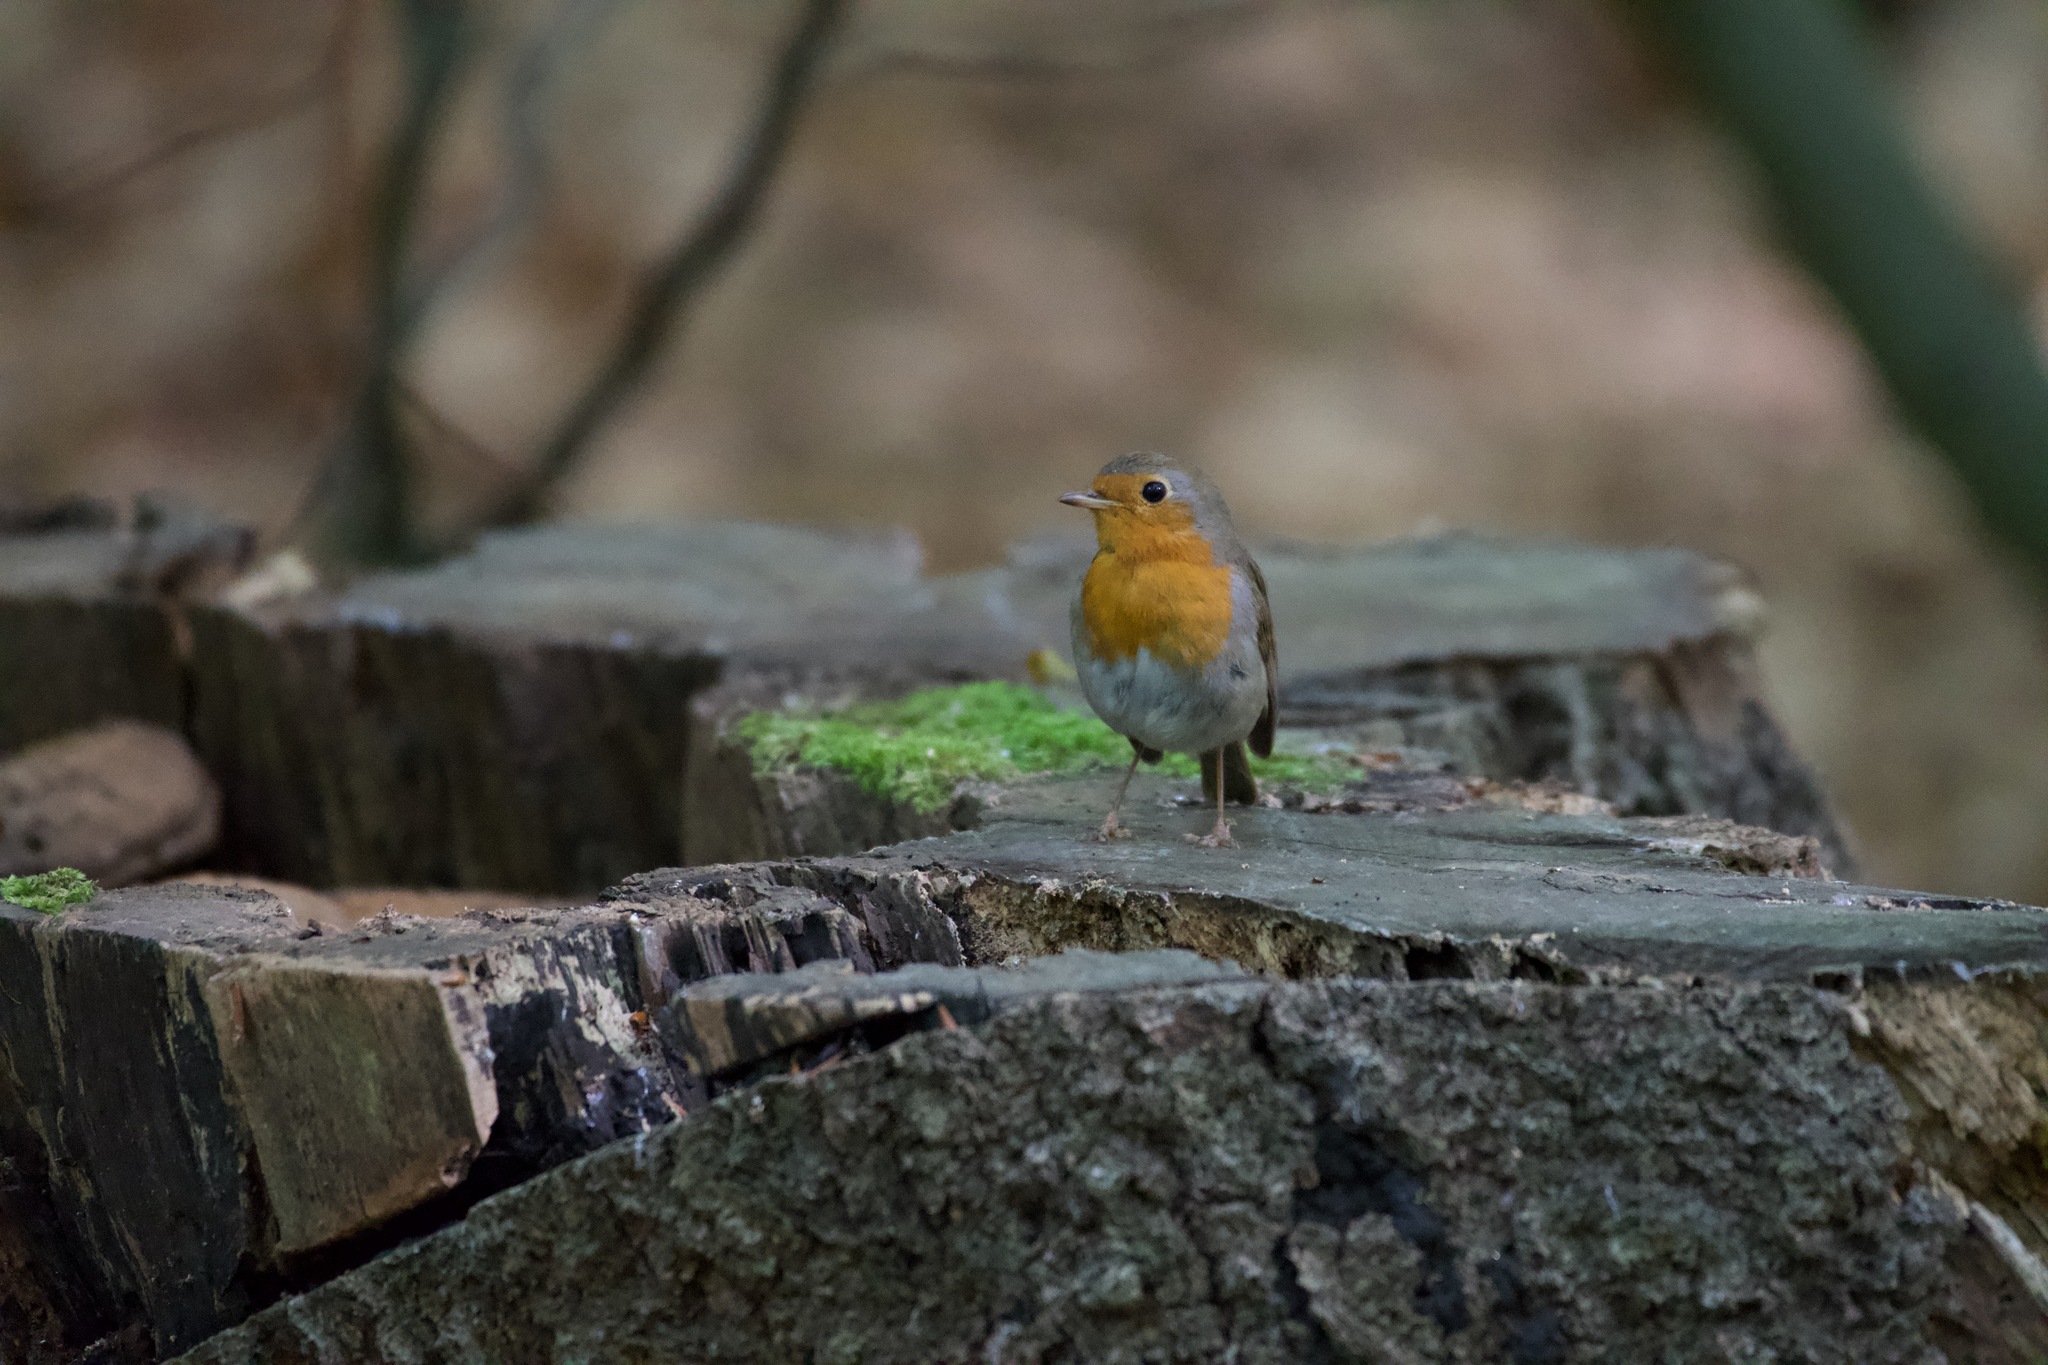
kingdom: Animalia
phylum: Chordata
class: Aves
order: Passeriformes
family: Muscicapidae
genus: Erithacus
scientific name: Erithacus rubecula
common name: European robin
